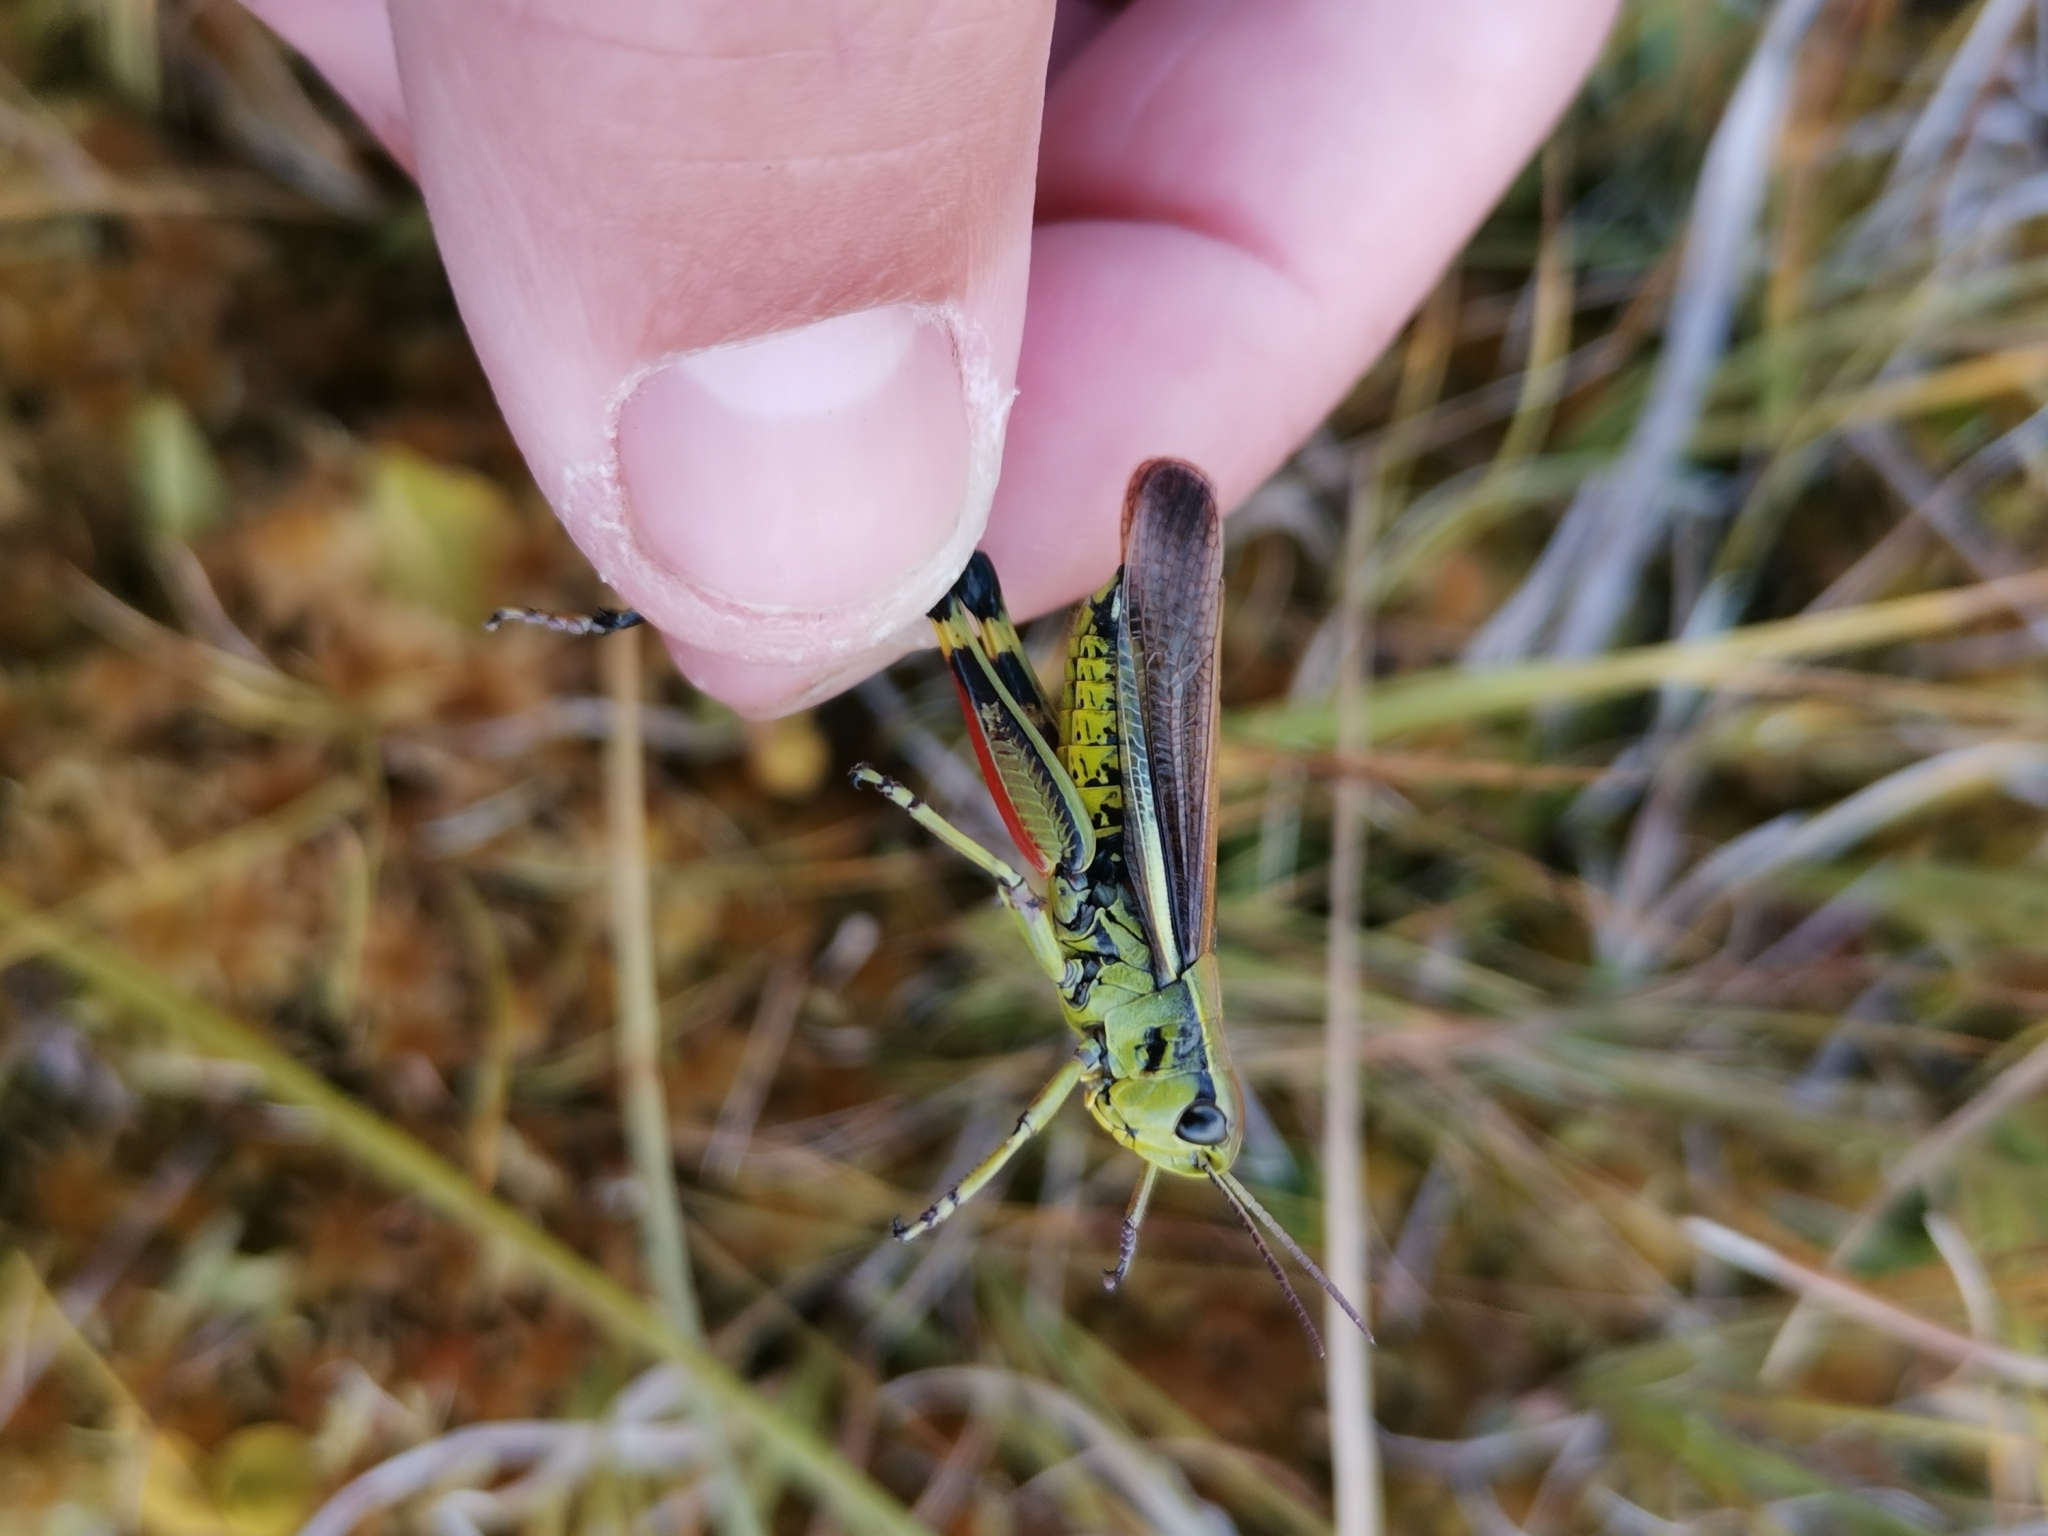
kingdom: Animalia
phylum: Arthropoda
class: Insecta
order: Orthoptera
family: Acrididae
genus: Stethophyma
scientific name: Stethophyma grossum
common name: Large marsh grasshopper
